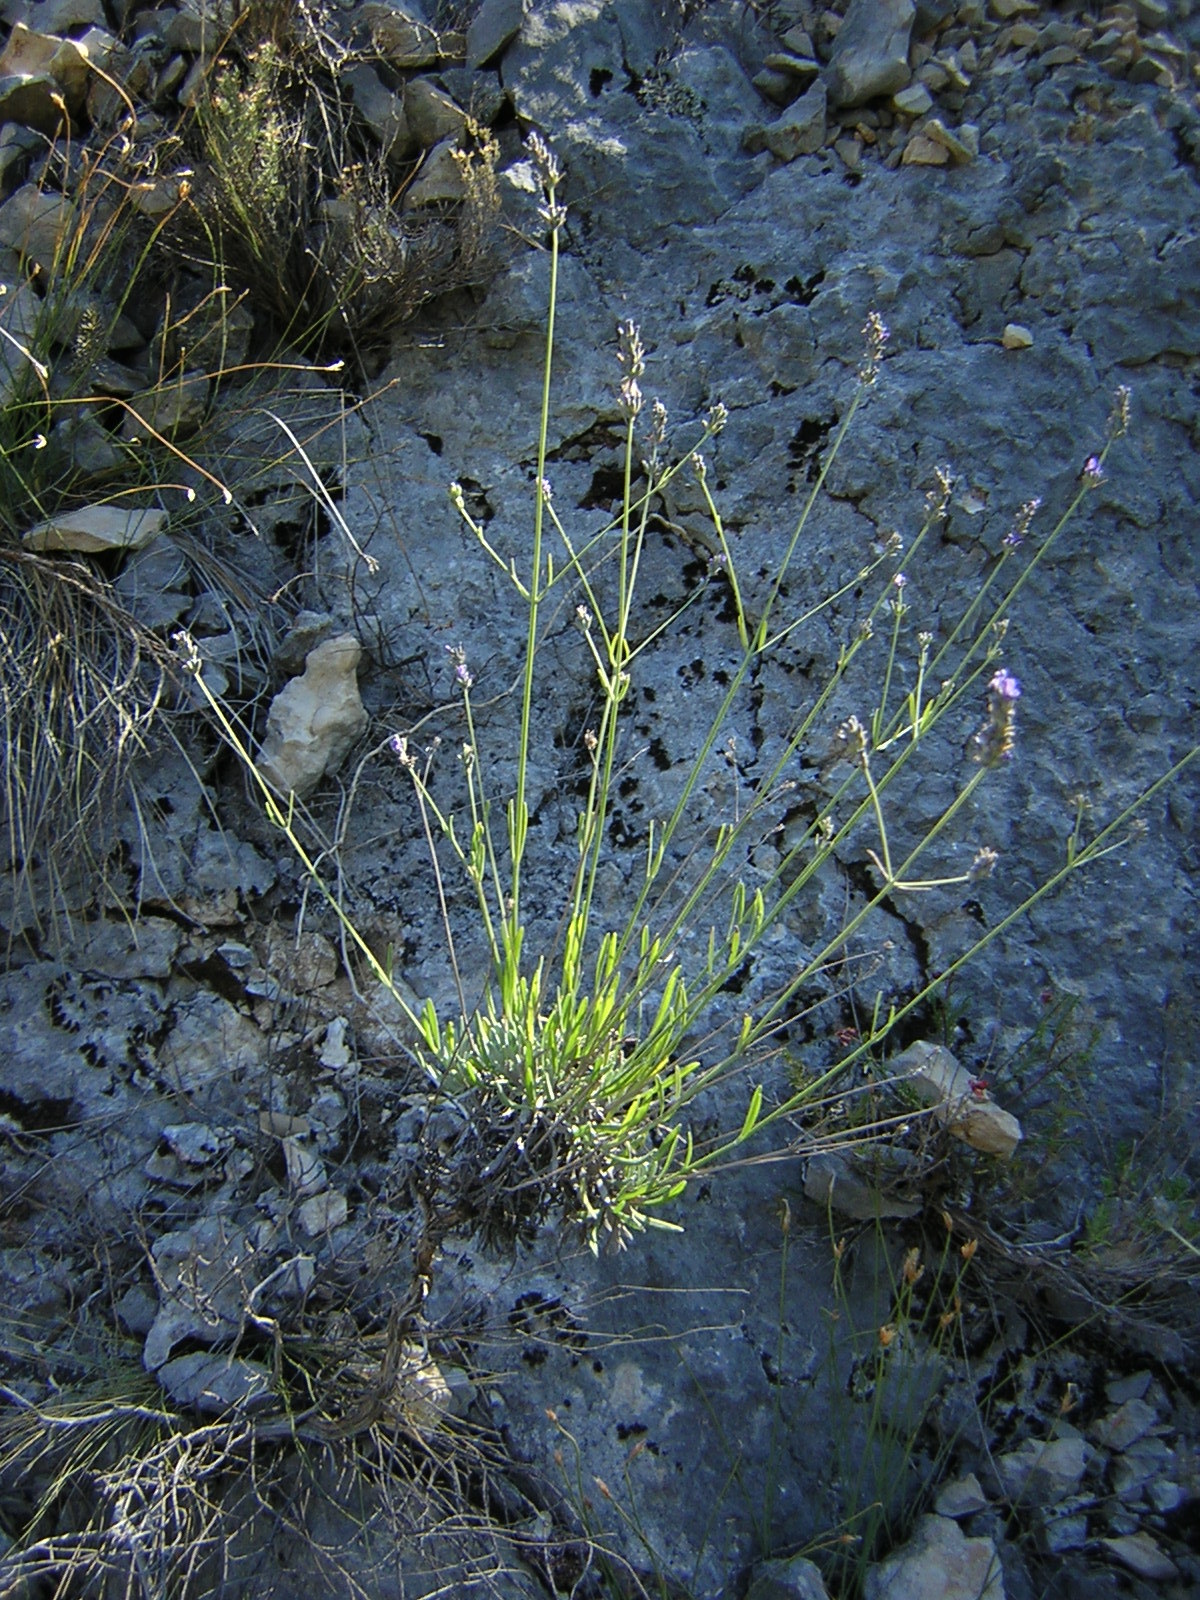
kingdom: Plantae
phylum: Tracheophyta
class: Magnoliopsida
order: Lamiales
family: Lamiaceae
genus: Lavandula
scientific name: Lavandula latifolia
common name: Spike lavendar
